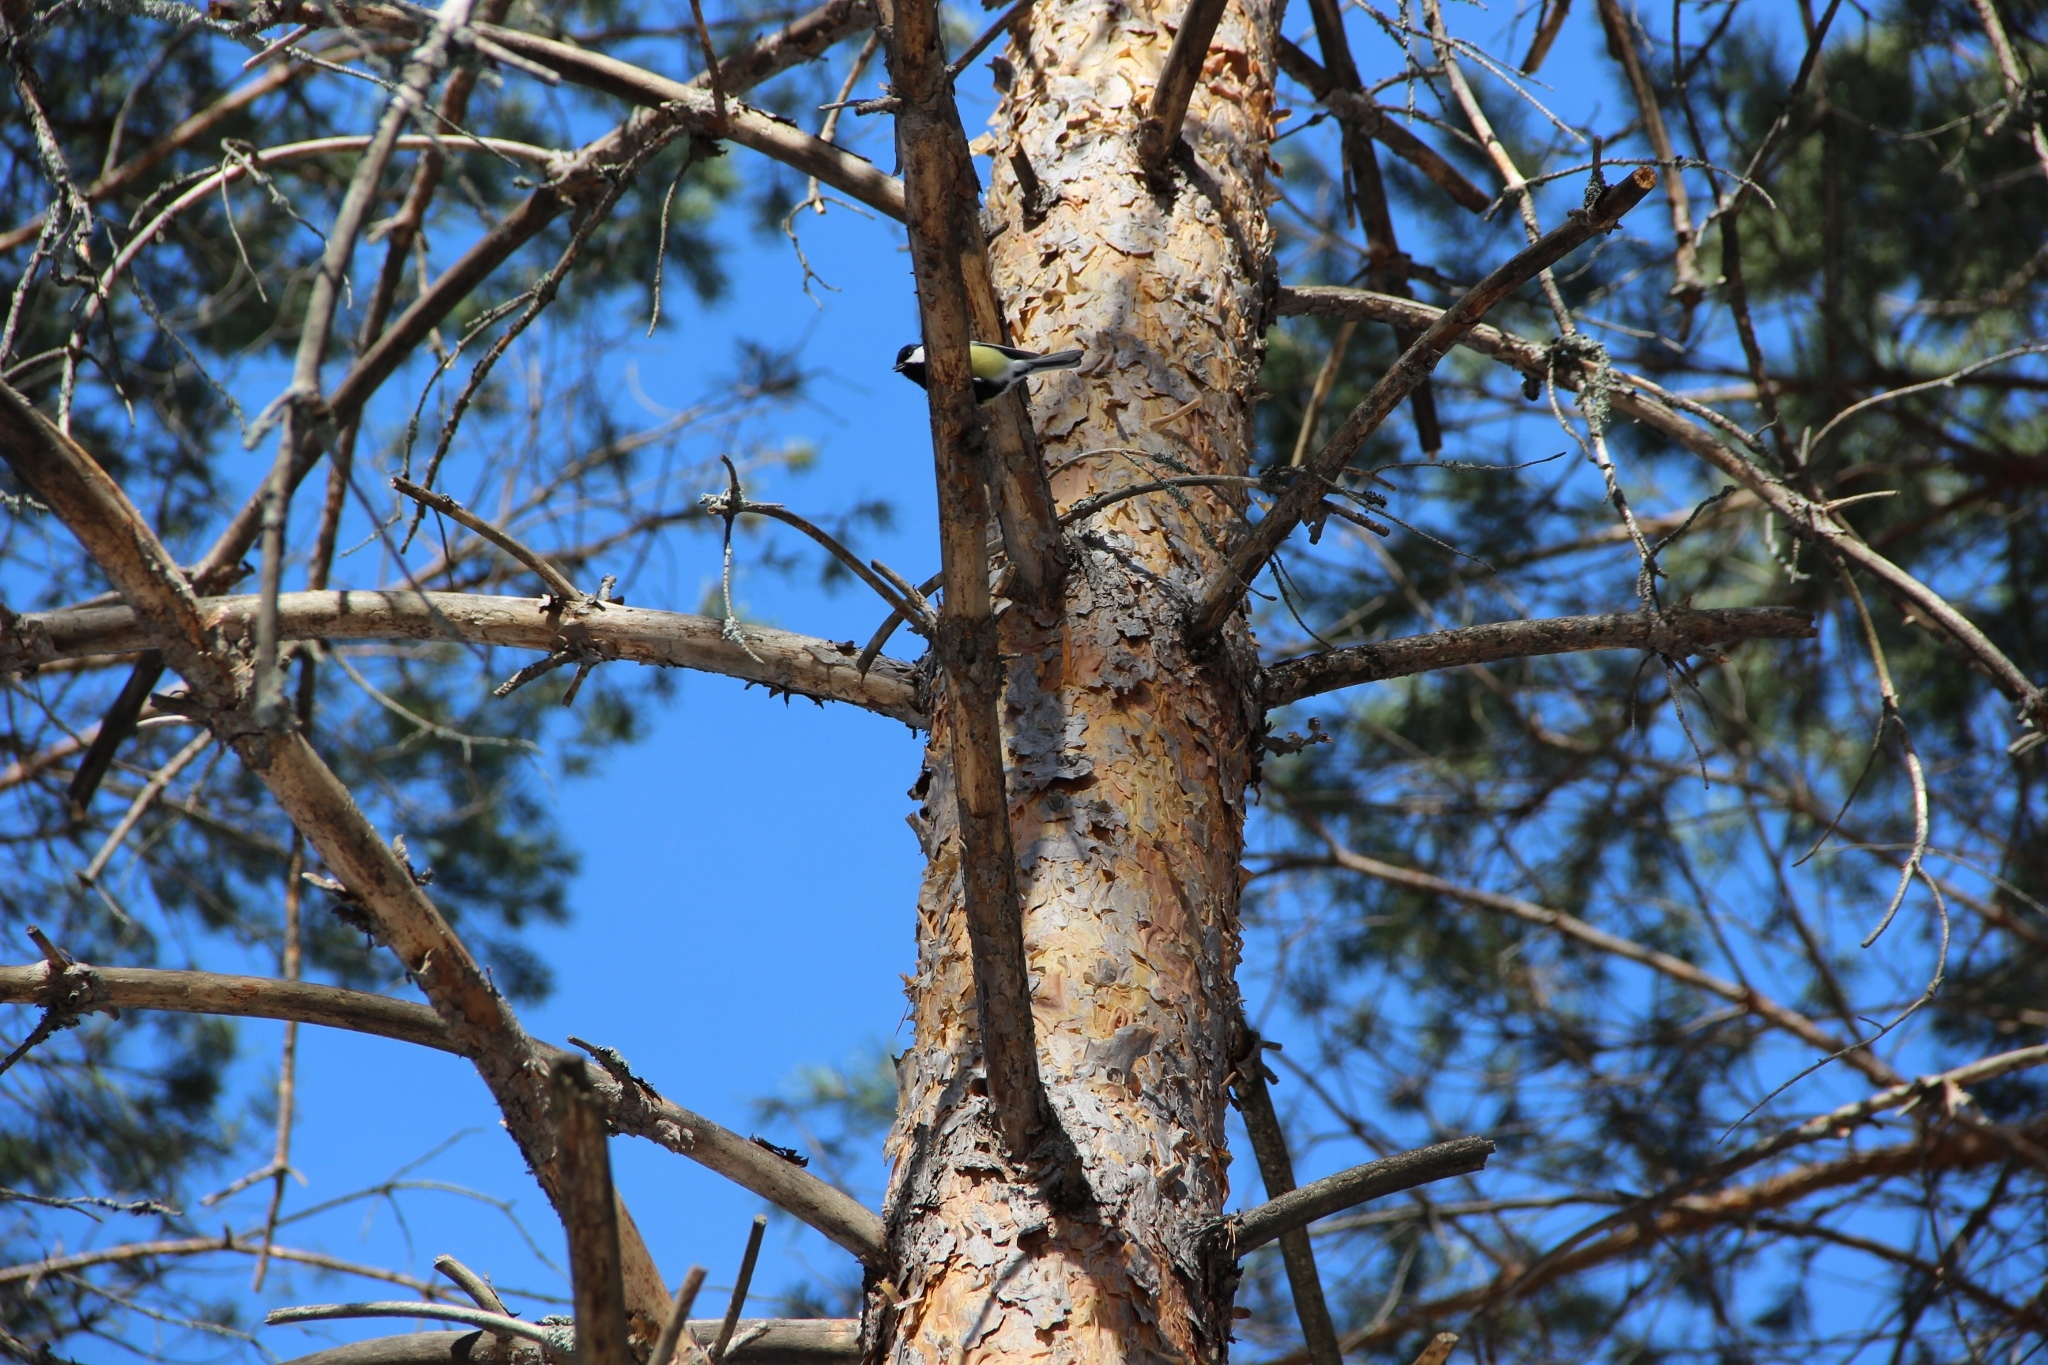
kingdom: Animalia
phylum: Chordata
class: Aves
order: Passeriformes
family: Paridae
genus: Parus
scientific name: Parus major
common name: Great tit
